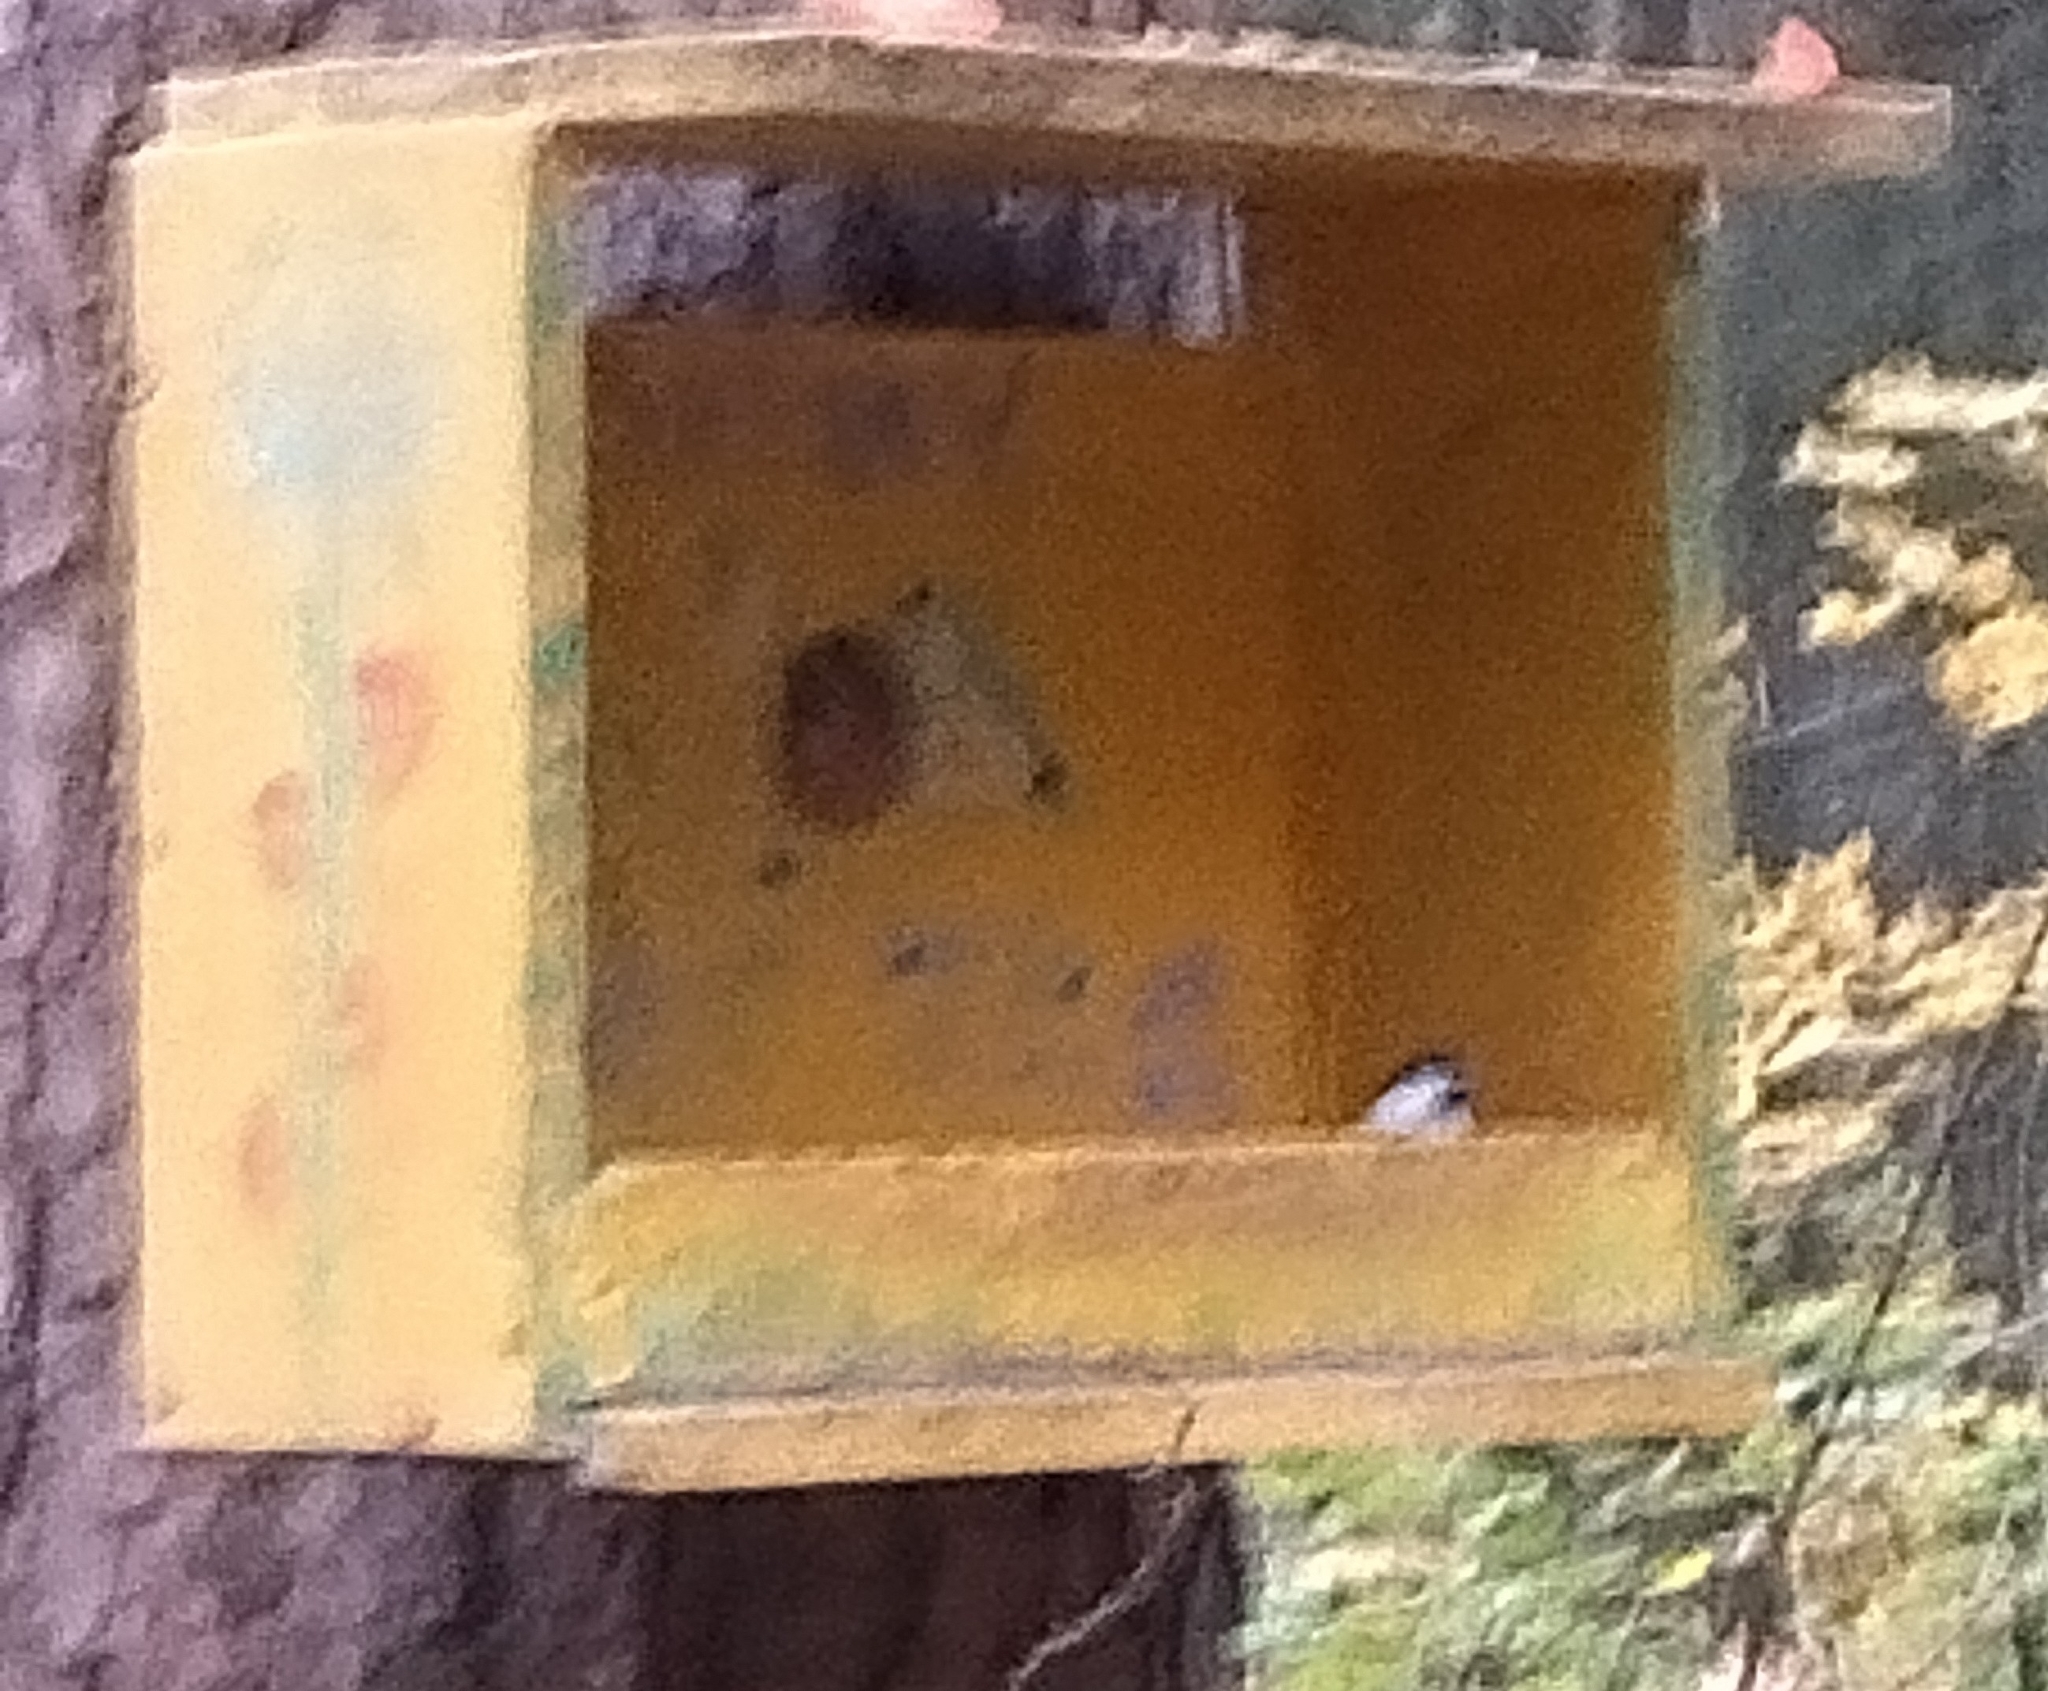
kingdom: Animalia
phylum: Chordata
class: Aves
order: Passeriformes
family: Paridae
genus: Poecile
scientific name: Poecile montanus
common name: Willow tit
